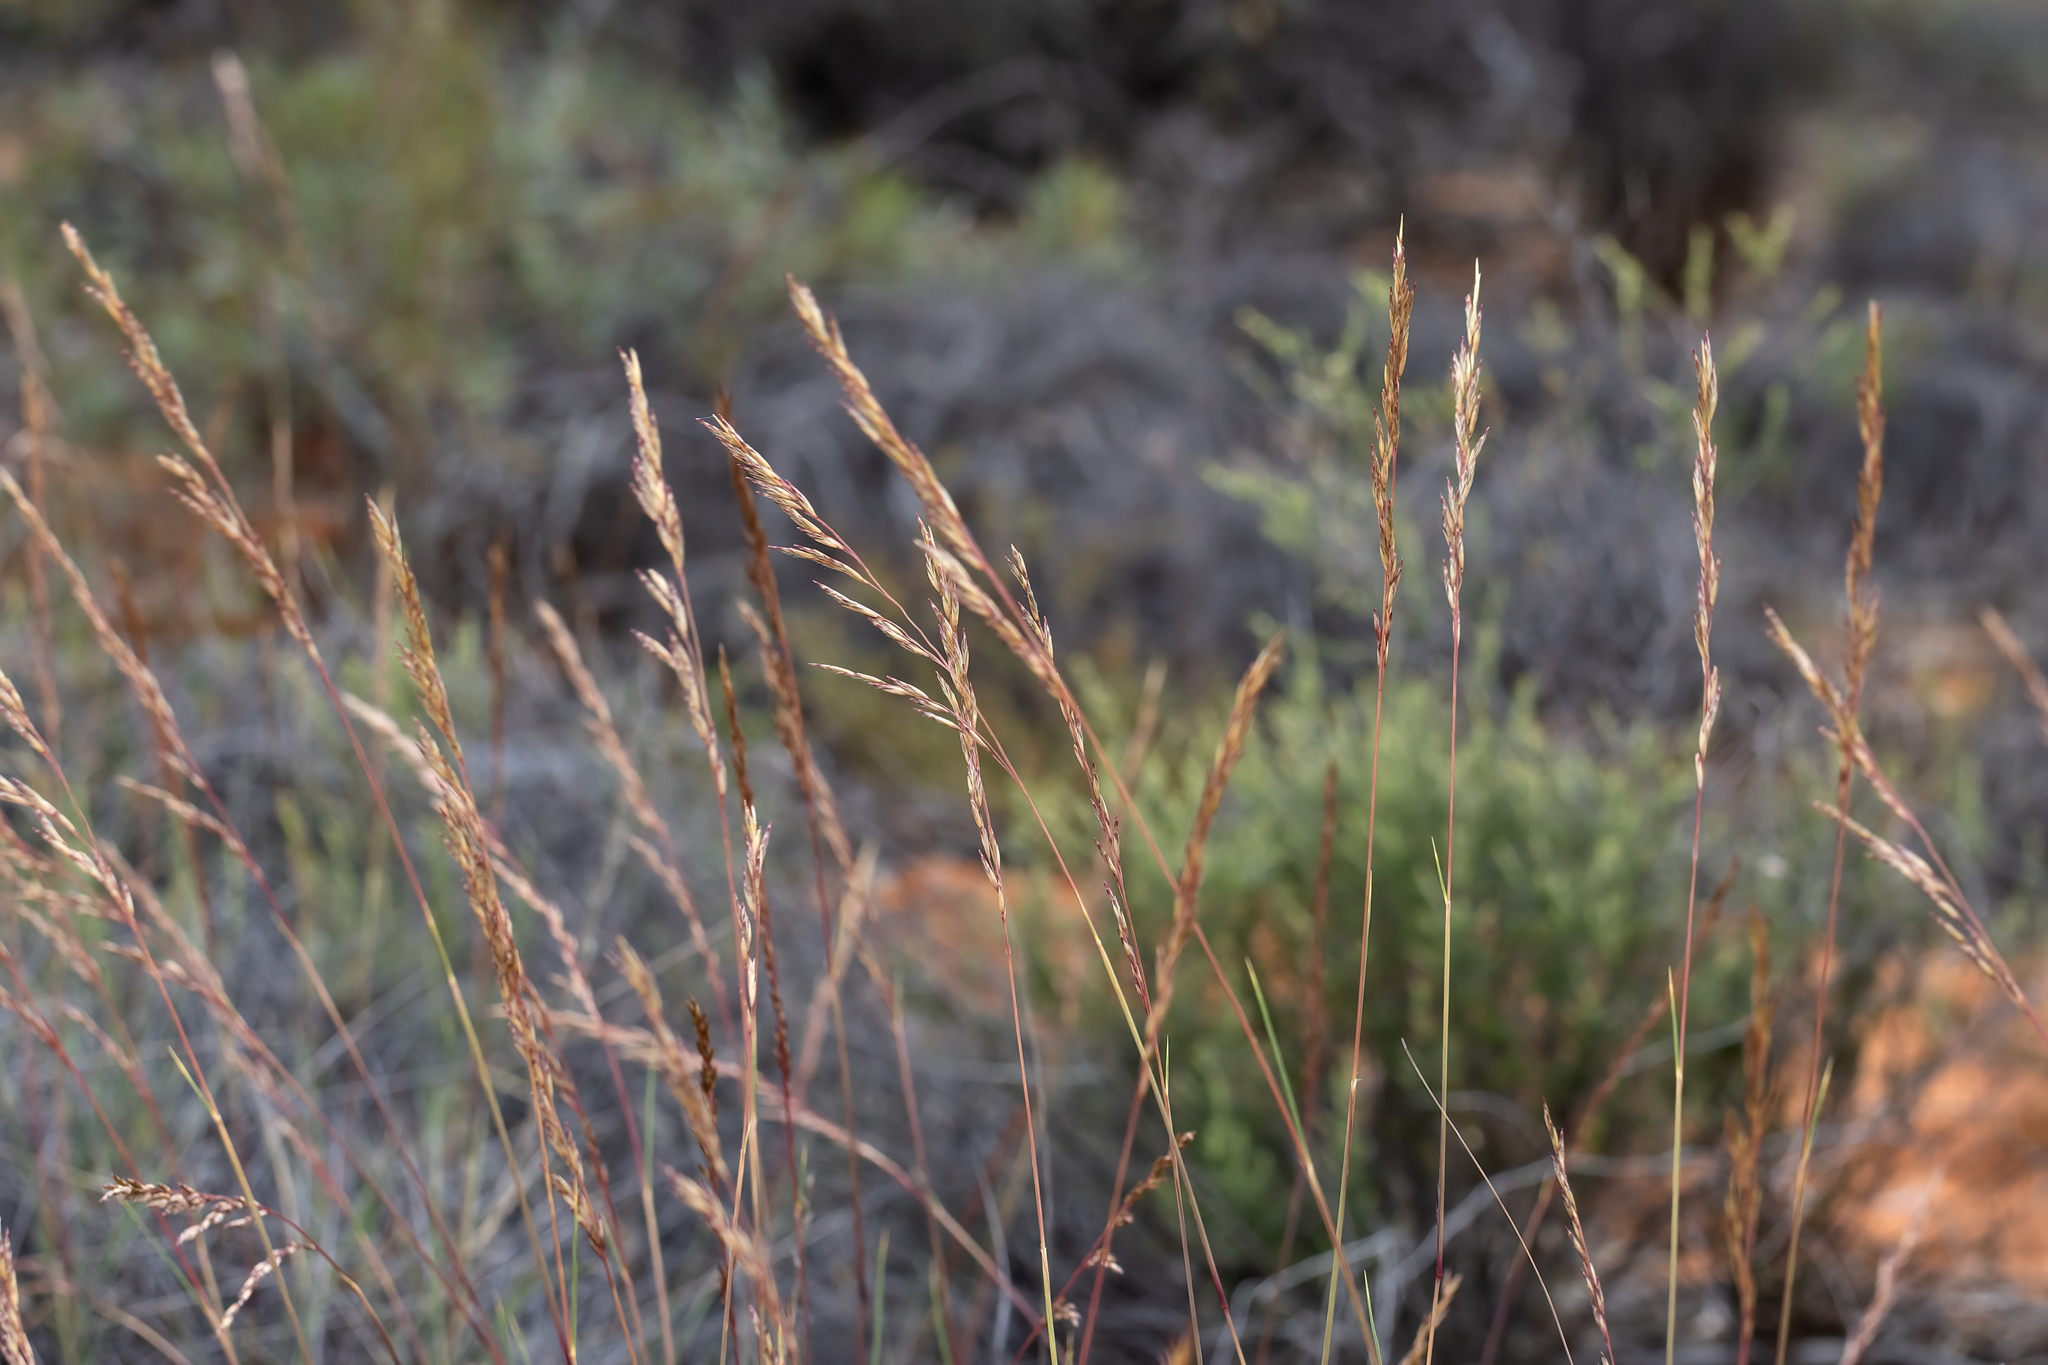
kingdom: Plantae
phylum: Tracheophyta
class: Liliopsida
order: Poales
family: Poaceae
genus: Triodia
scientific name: Triodia tomentosa
